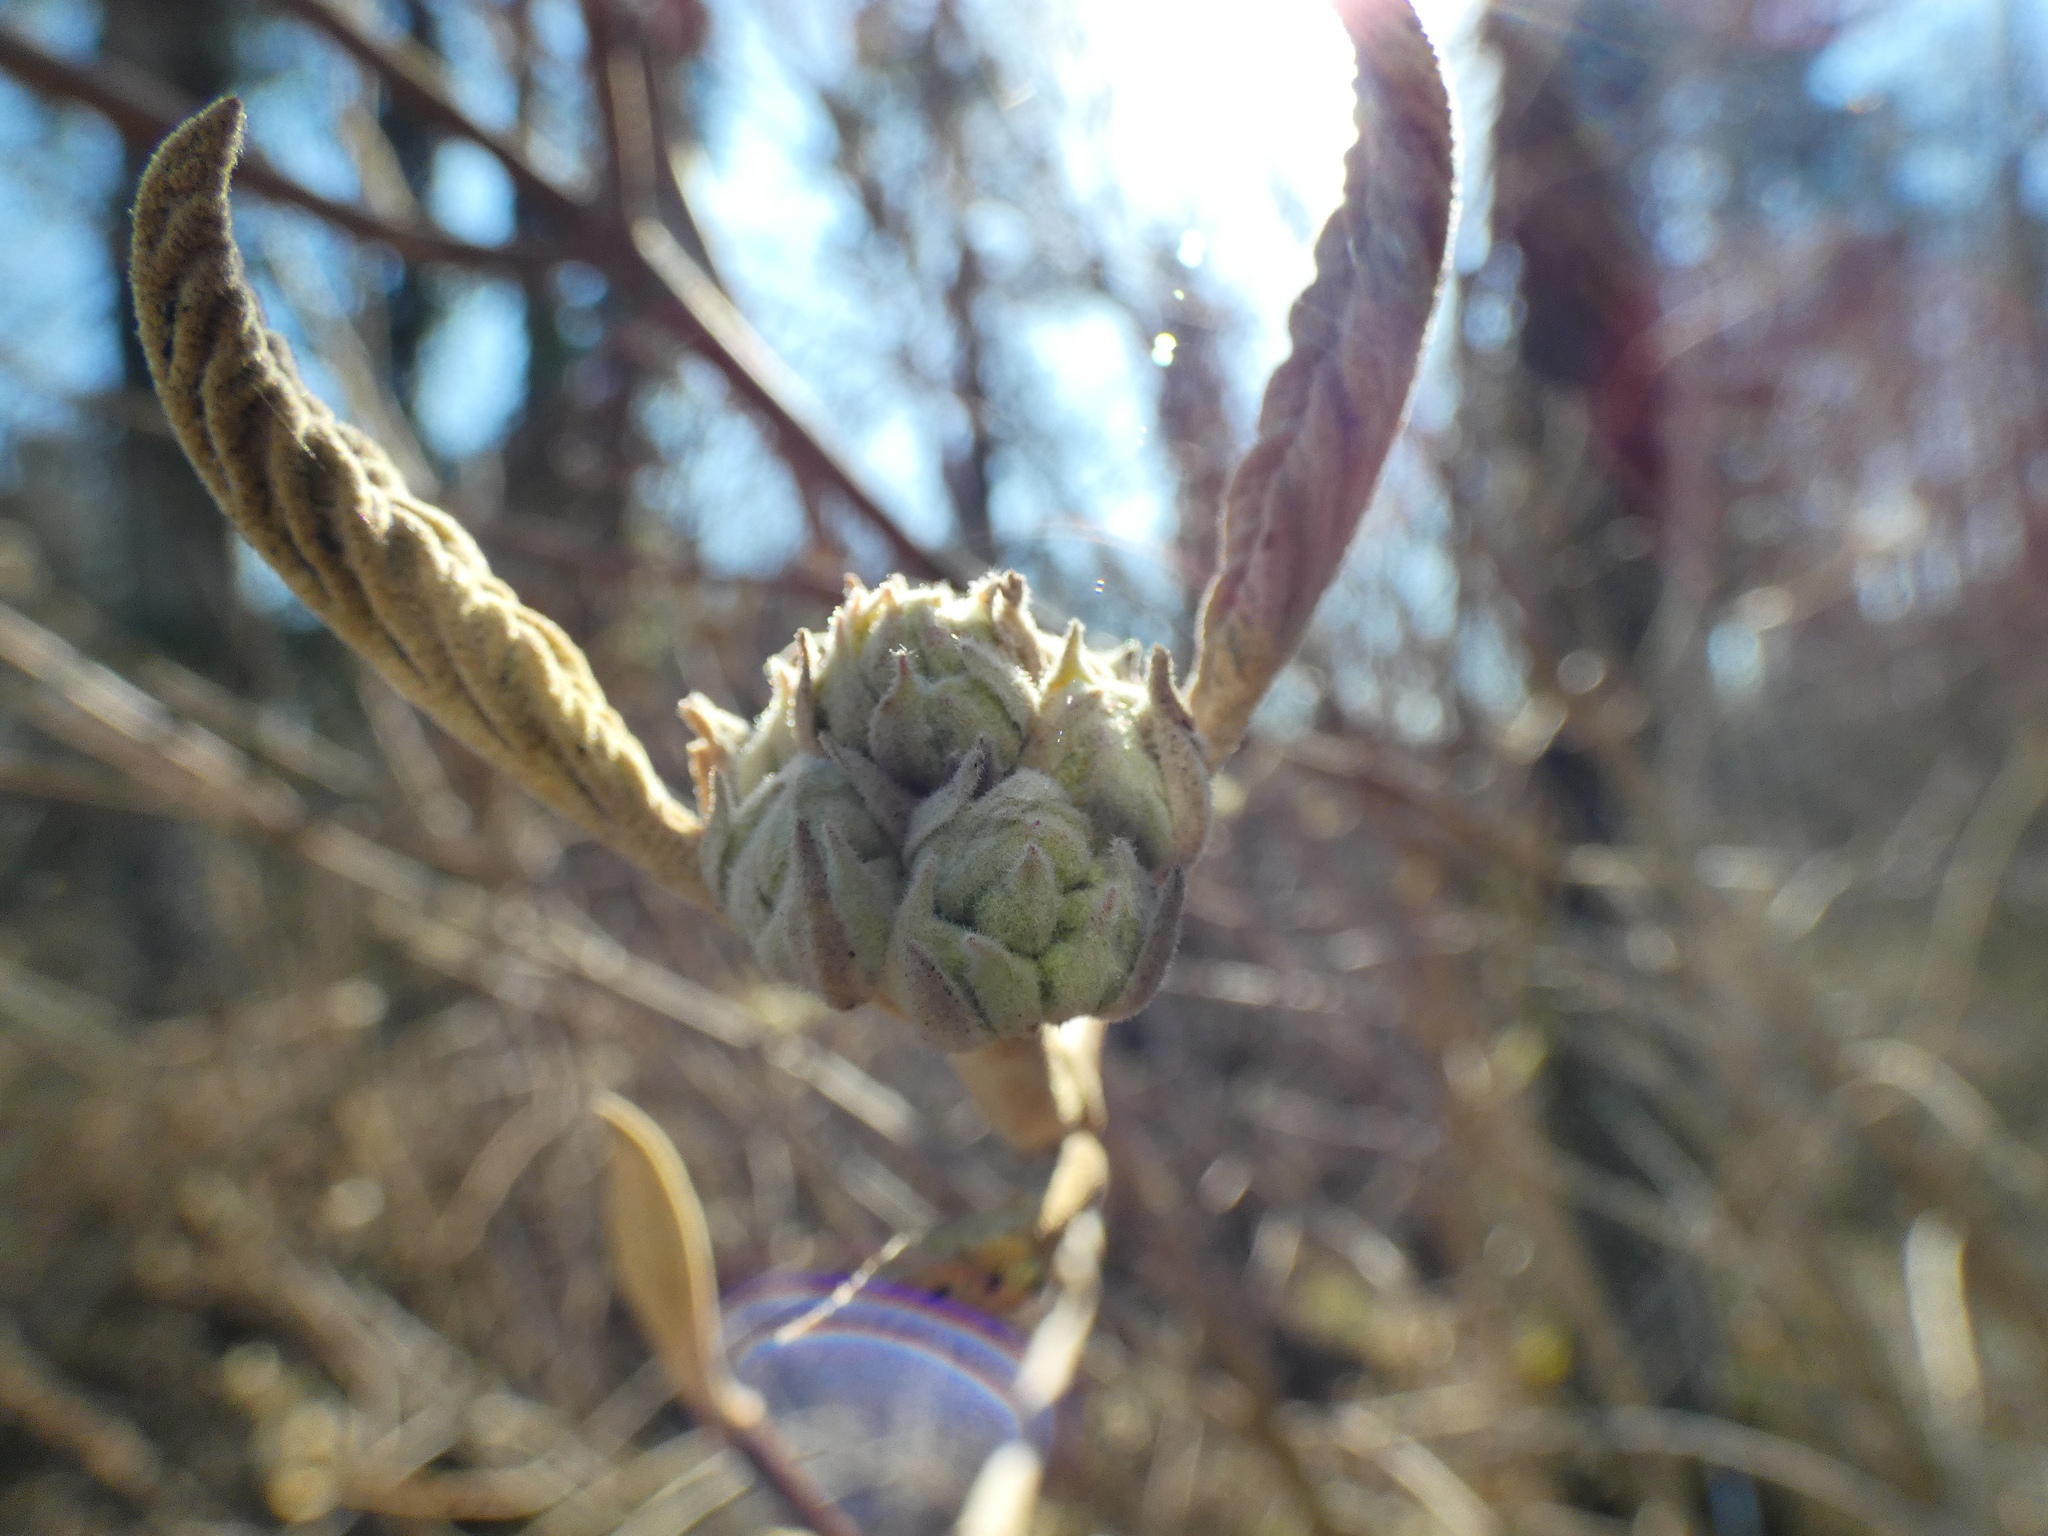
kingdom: Plantae
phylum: Tracheophyta
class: Magnoliopsida
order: Dipsacales
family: Viburnaceae
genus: Viburnum
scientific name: Viburnum lantana
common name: Wayfaring tree
